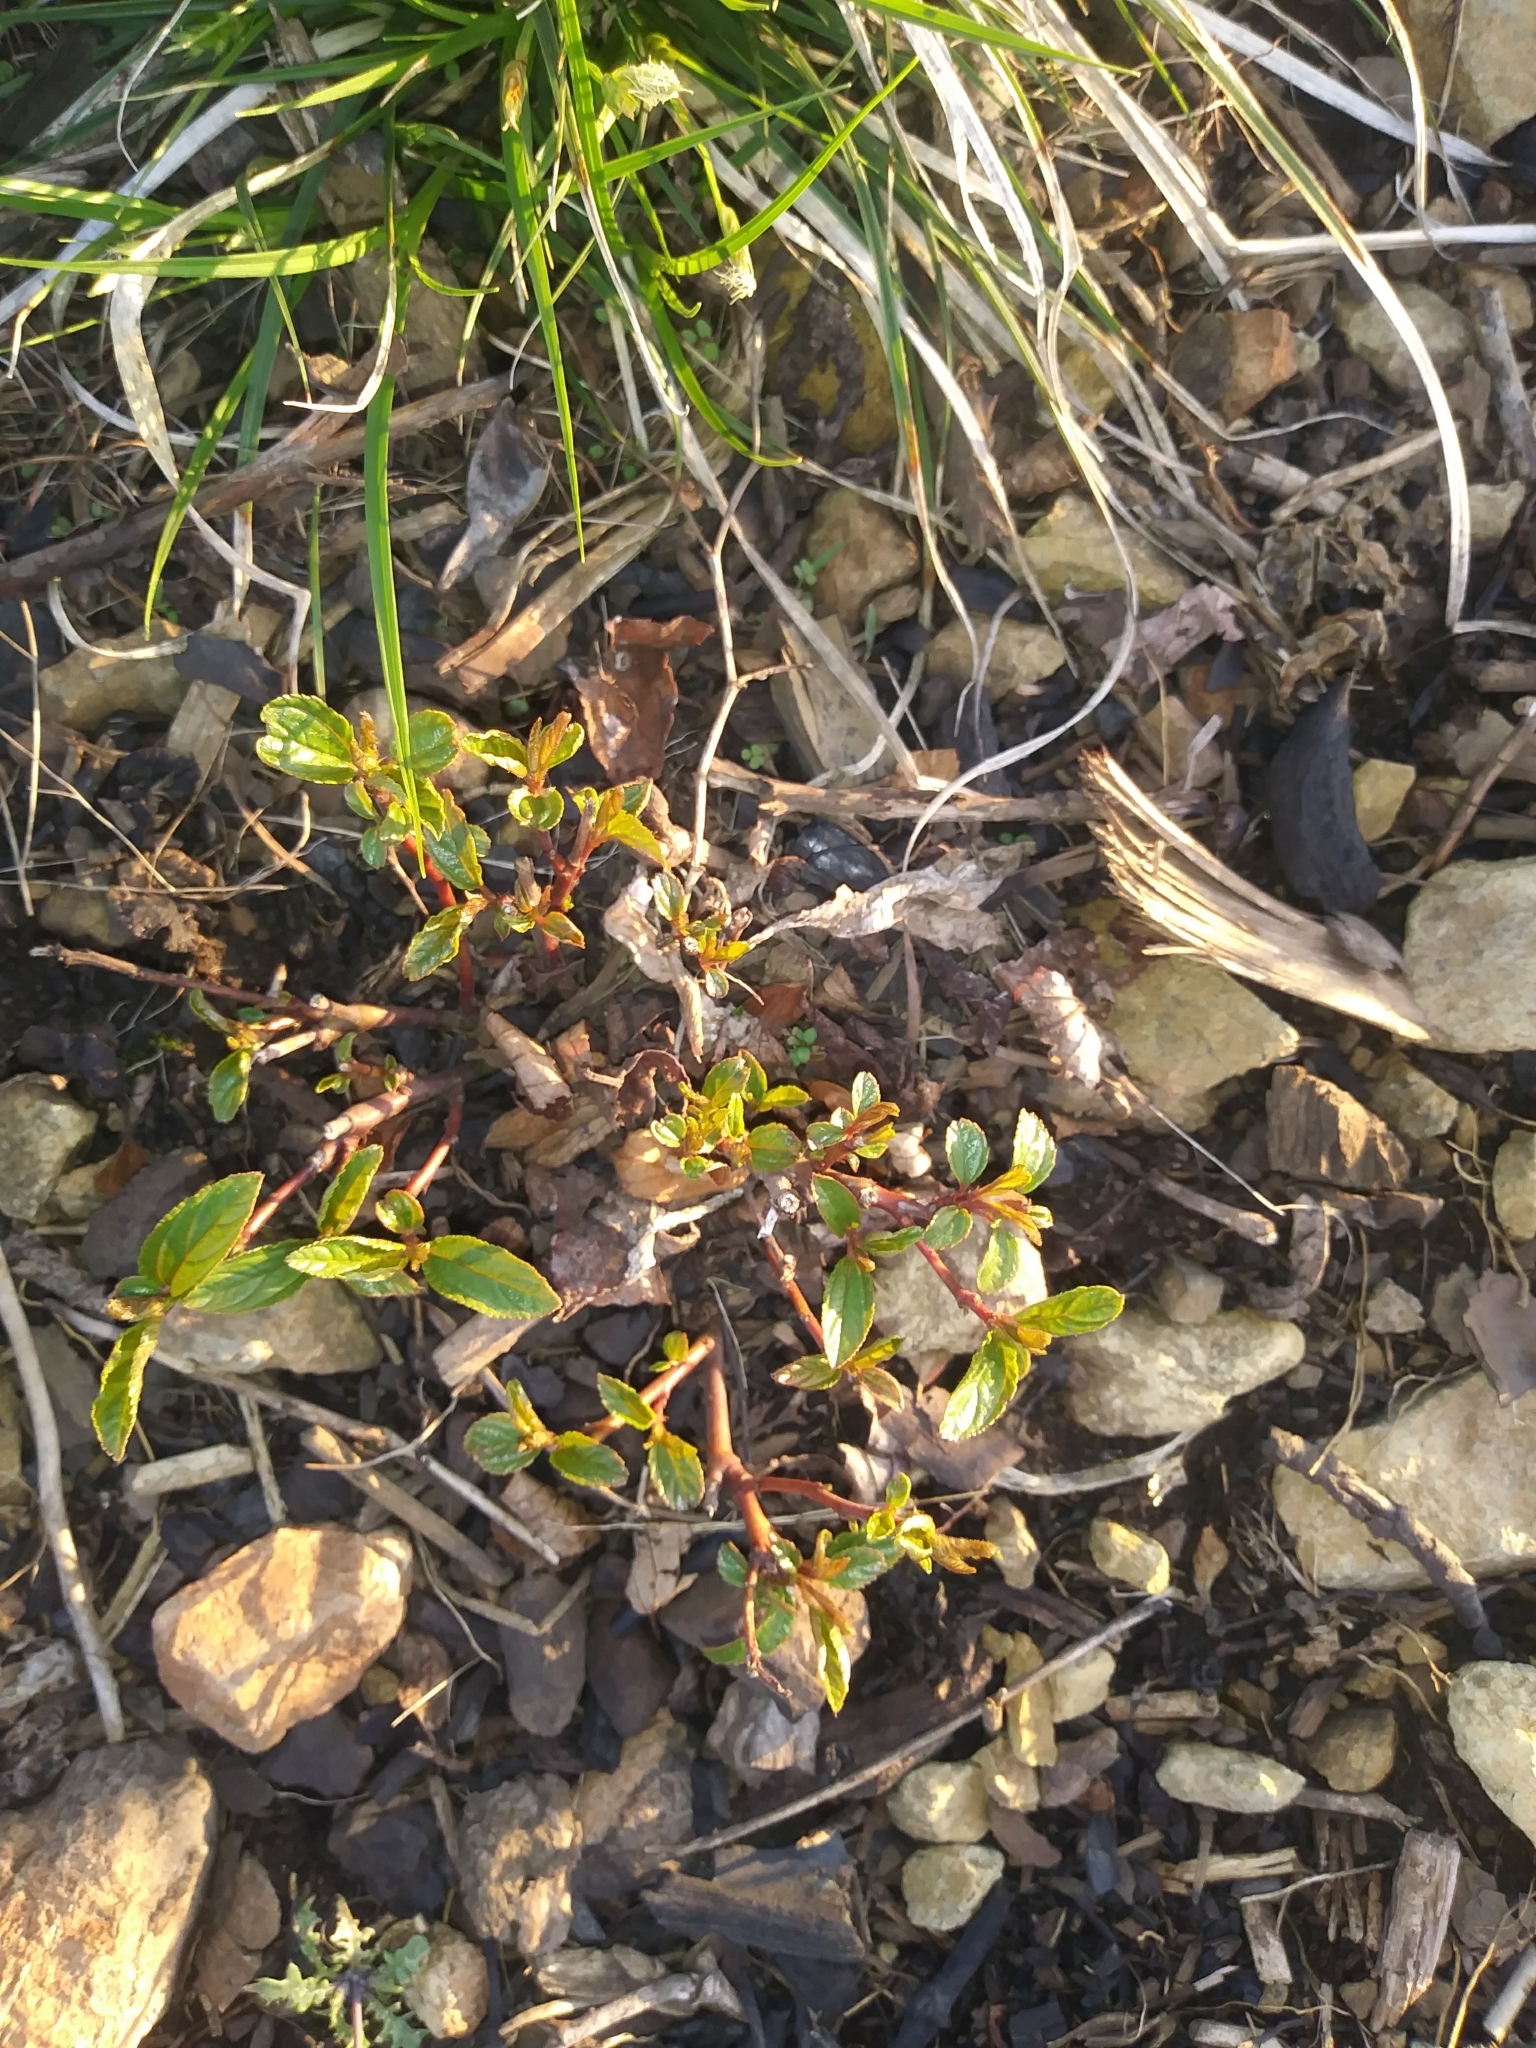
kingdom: Plantae
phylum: Tracheophyta
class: Magnoliopsida
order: Rosales
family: Rhamnaceae
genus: Ceanothus
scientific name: Ceanothus americanus
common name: Redroot
